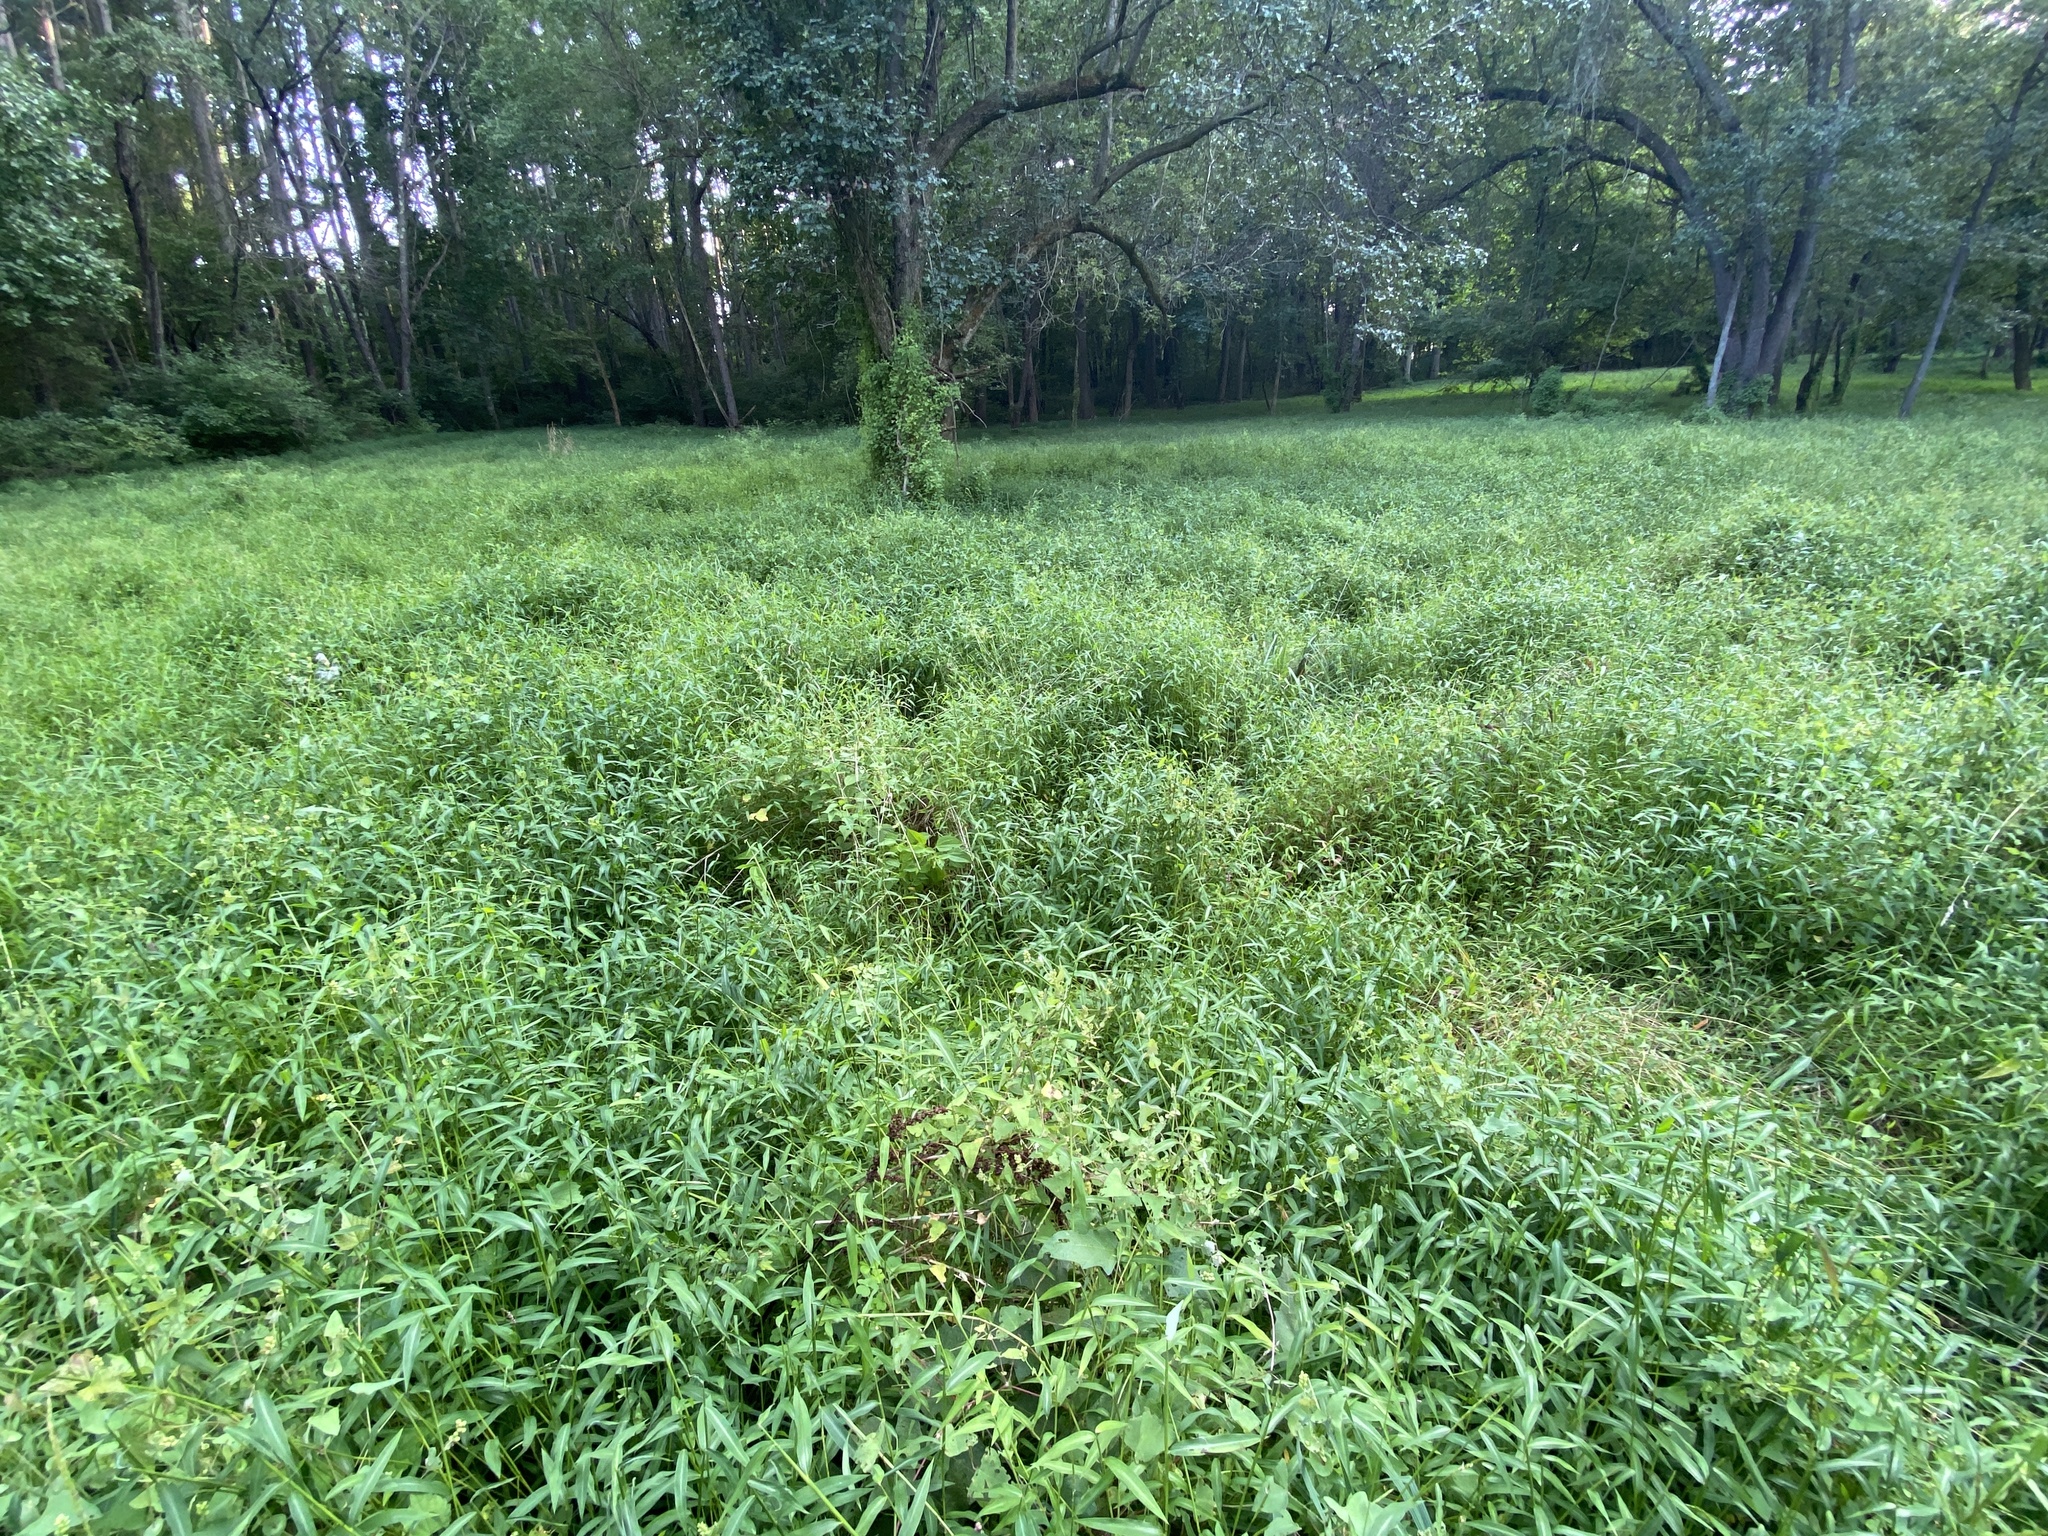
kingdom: Plantae
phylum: Tracheophyta
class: Liliopsida
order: Poales
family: Poaceae
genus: Microstegium
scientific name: Microstegium vimineum
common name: Japanese stiltgrass
